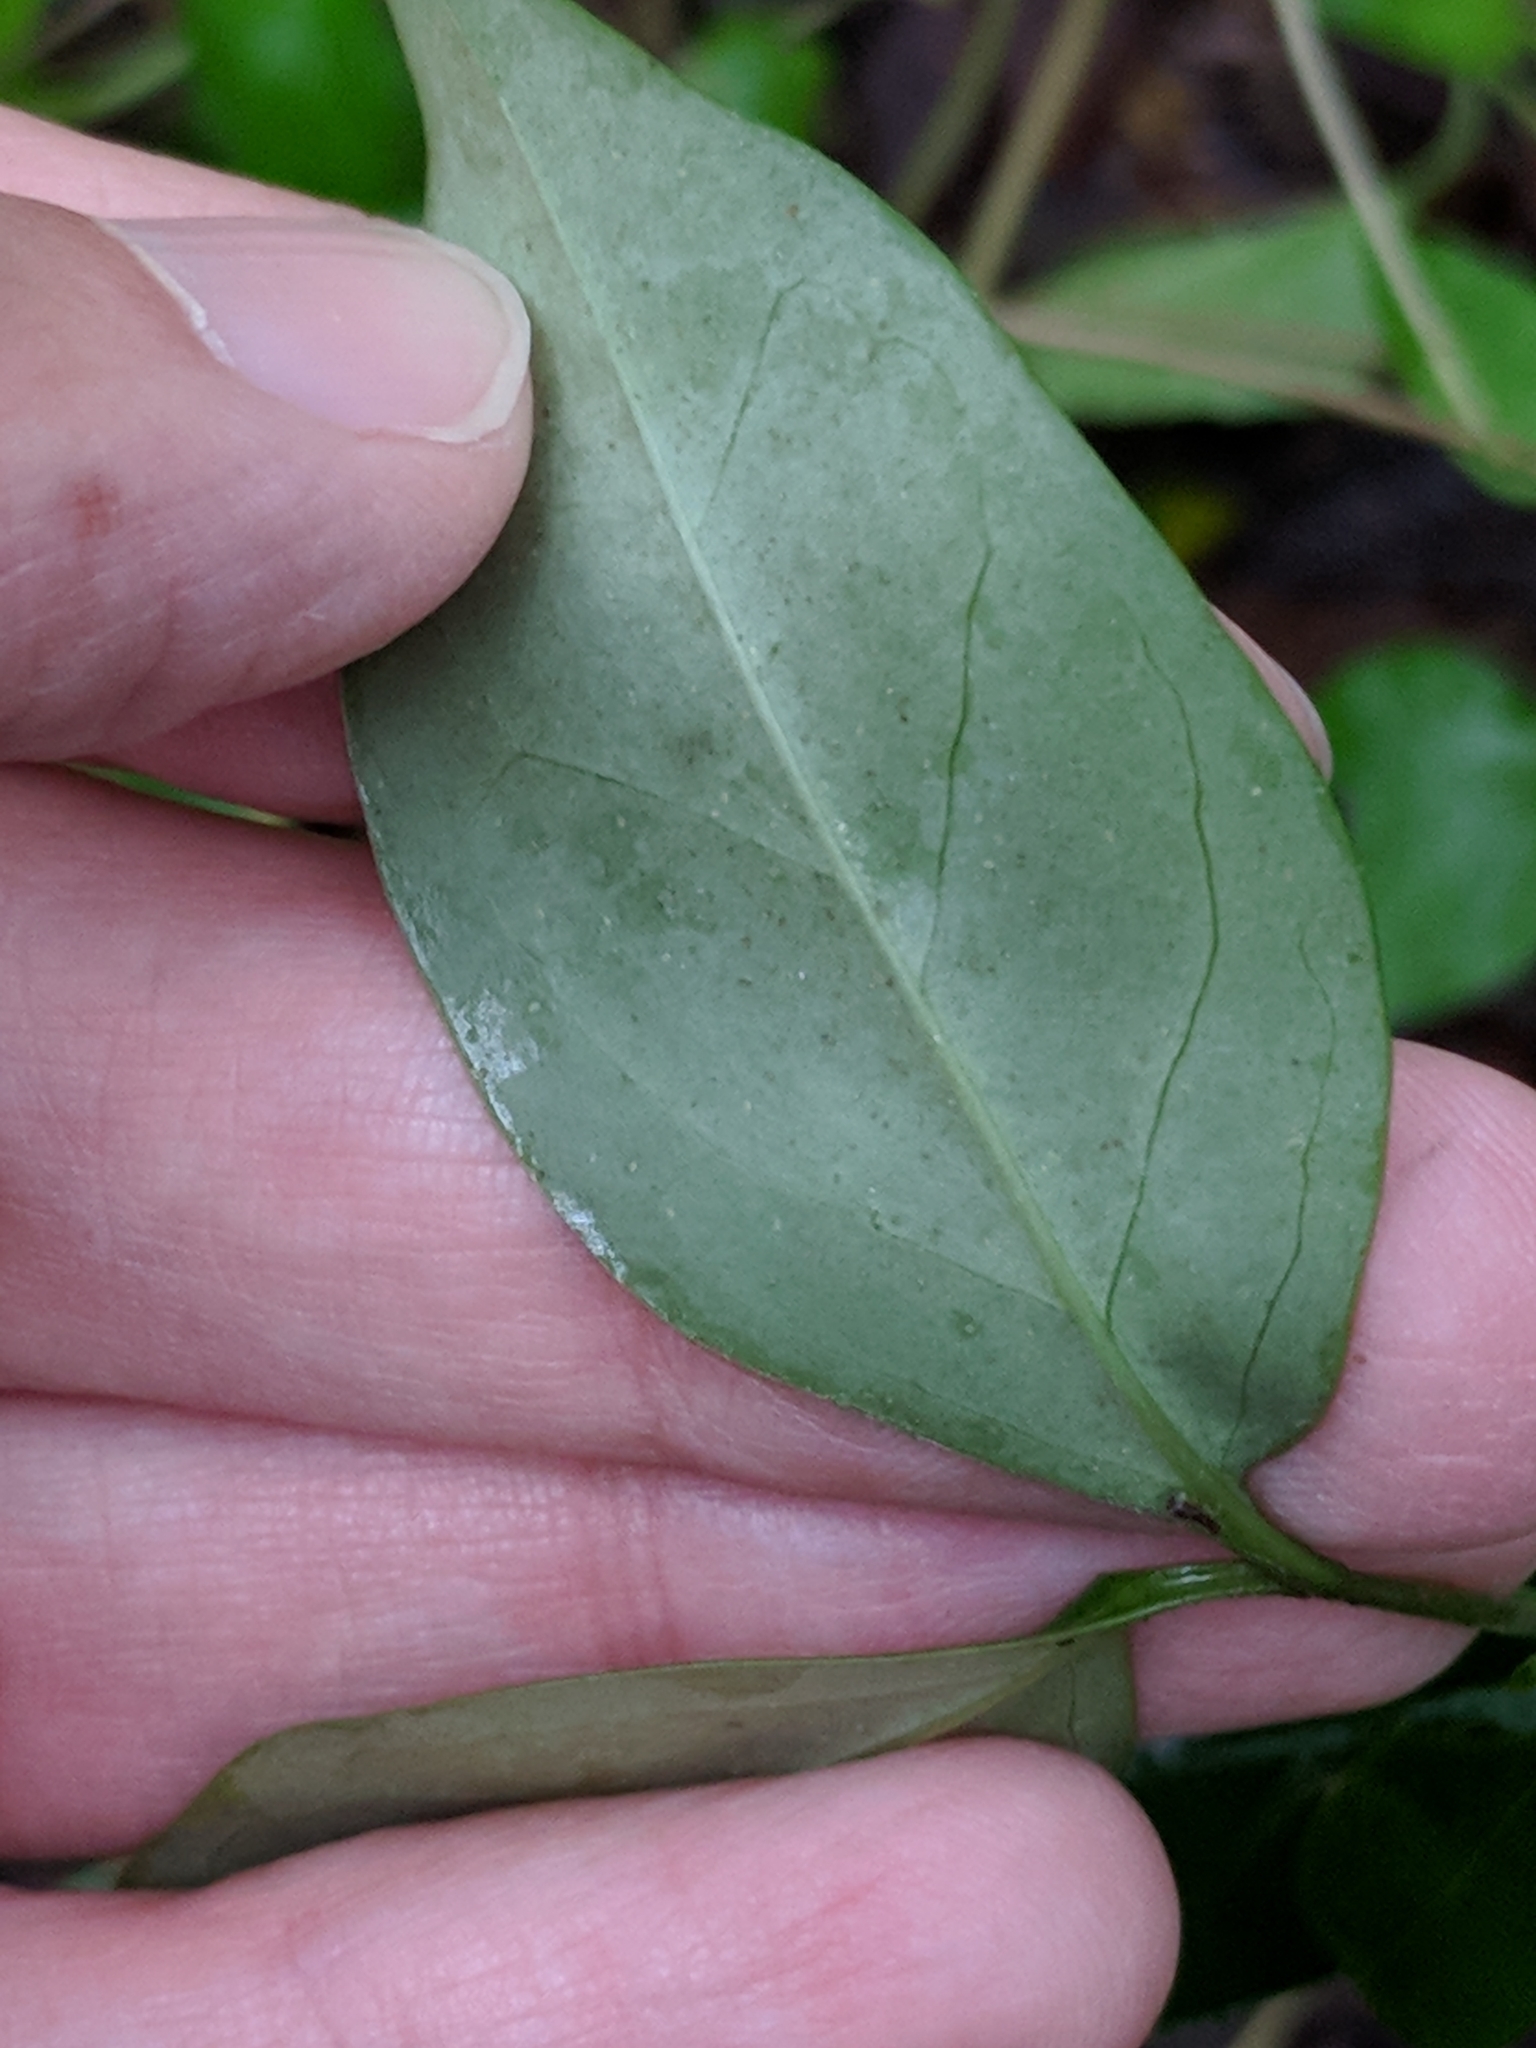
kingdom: Plantae
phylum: Tracheophyta
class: Magnoliopsida
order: Lamiales
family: Oleaceae
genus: Ligustrum
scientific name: Ligustrum lucidum
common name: Glossy privet
